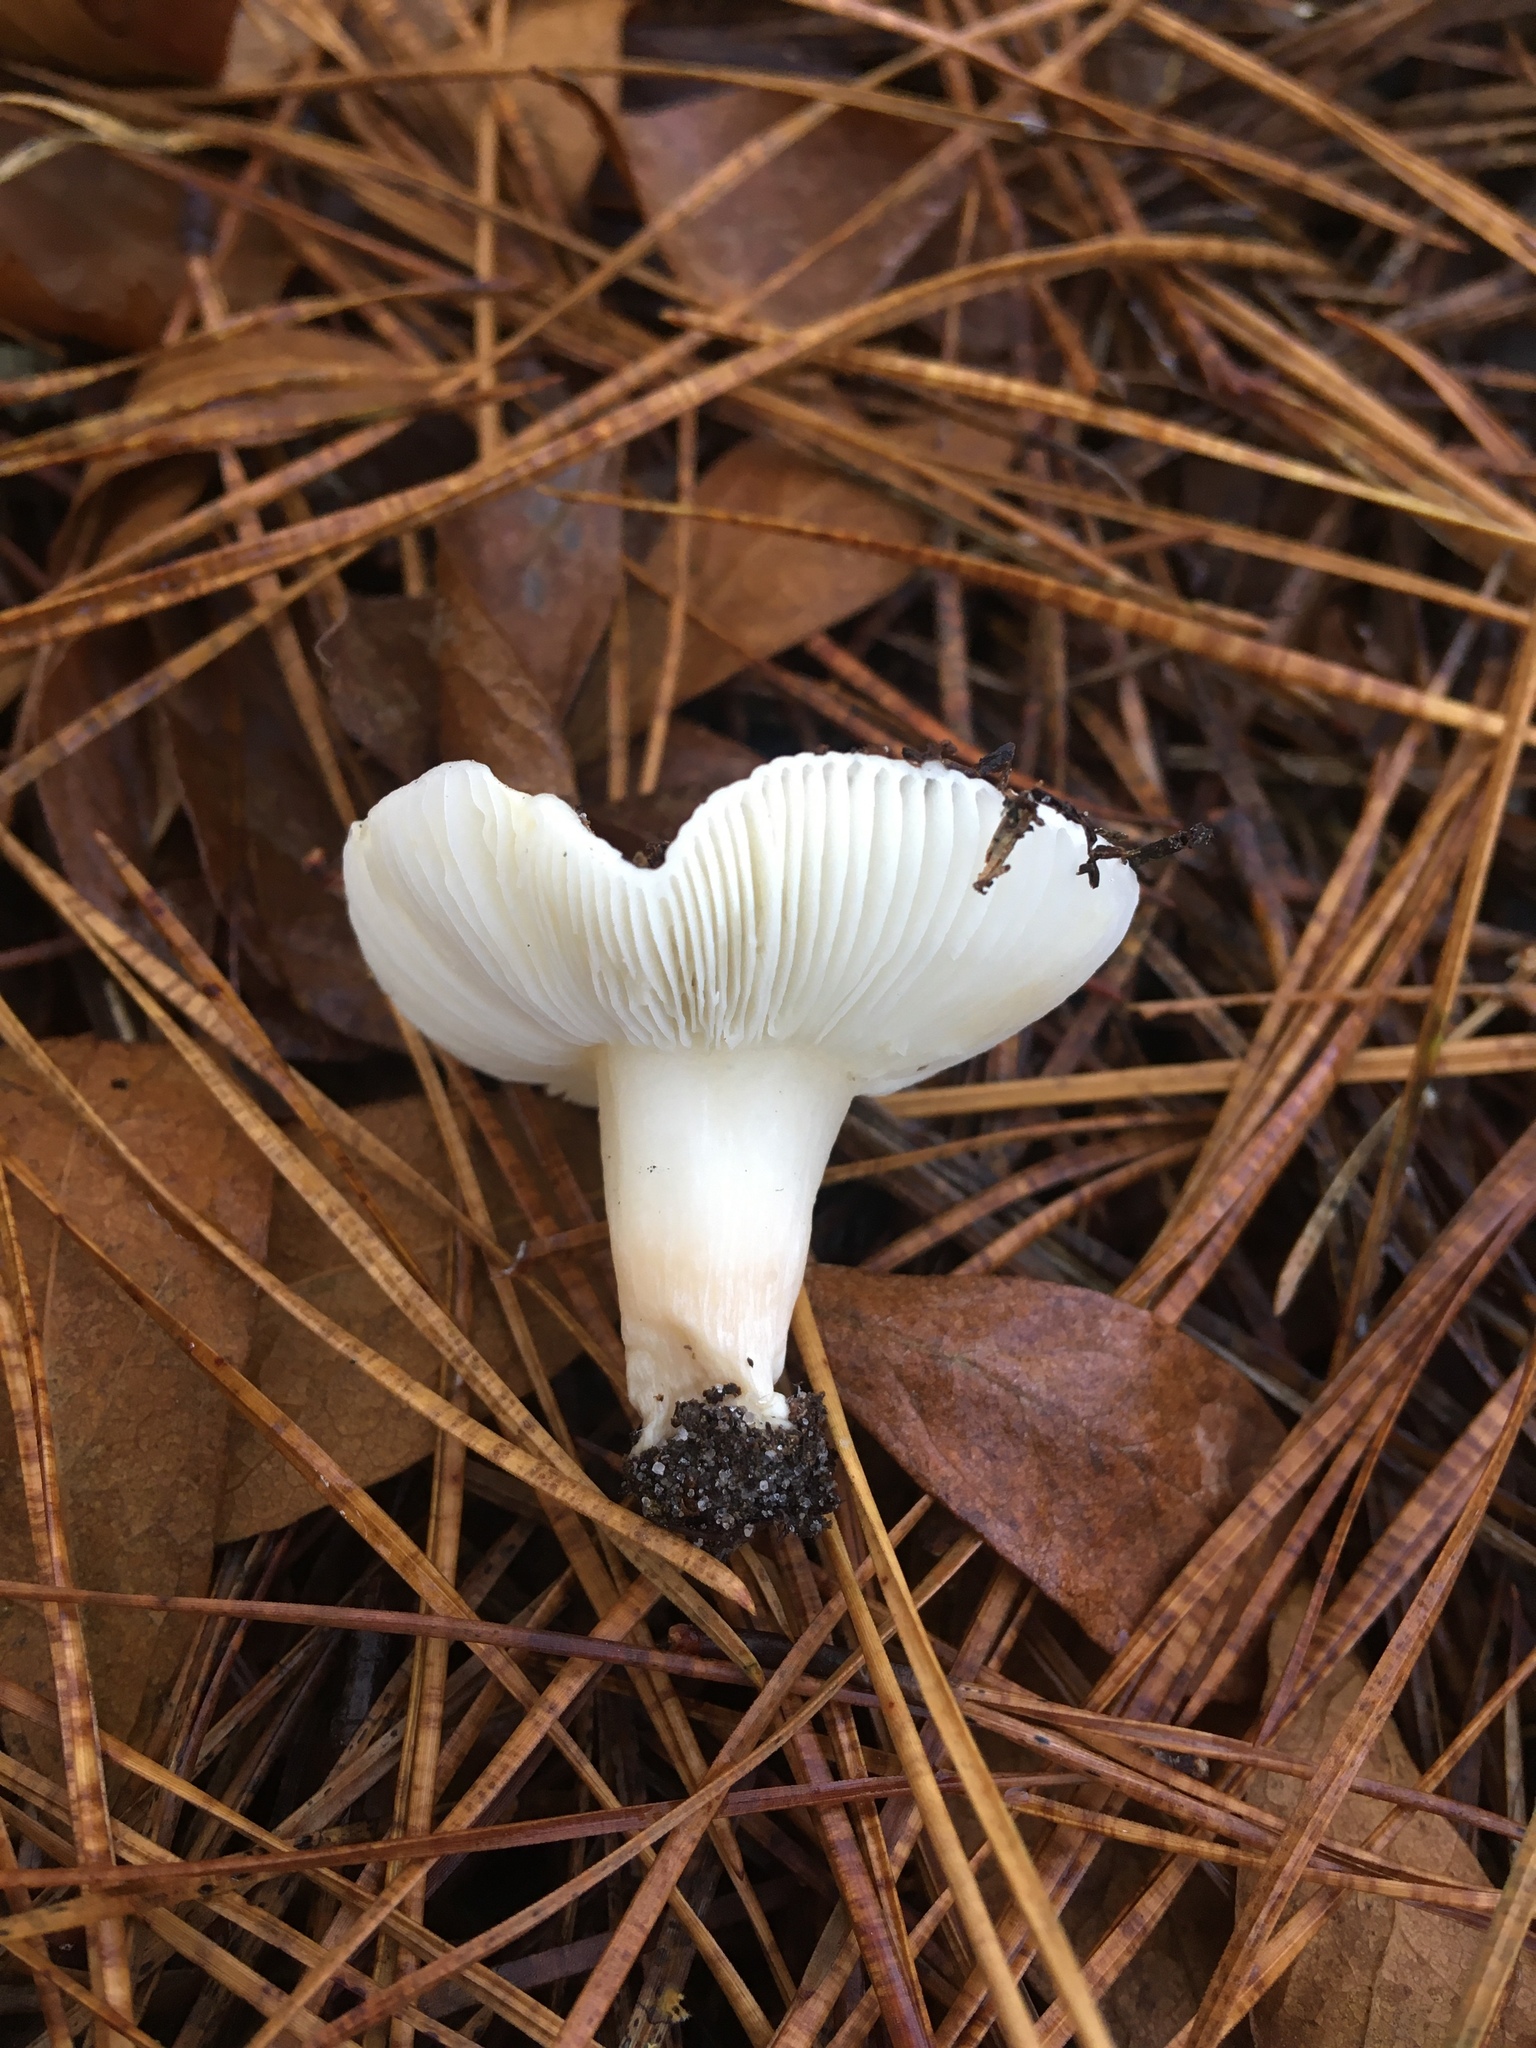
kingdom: Fungi
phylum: Basidiomycota
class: Agaricomycetes
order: Russulales
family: Russulaceae
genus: Russula
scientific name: Russula perlactea
